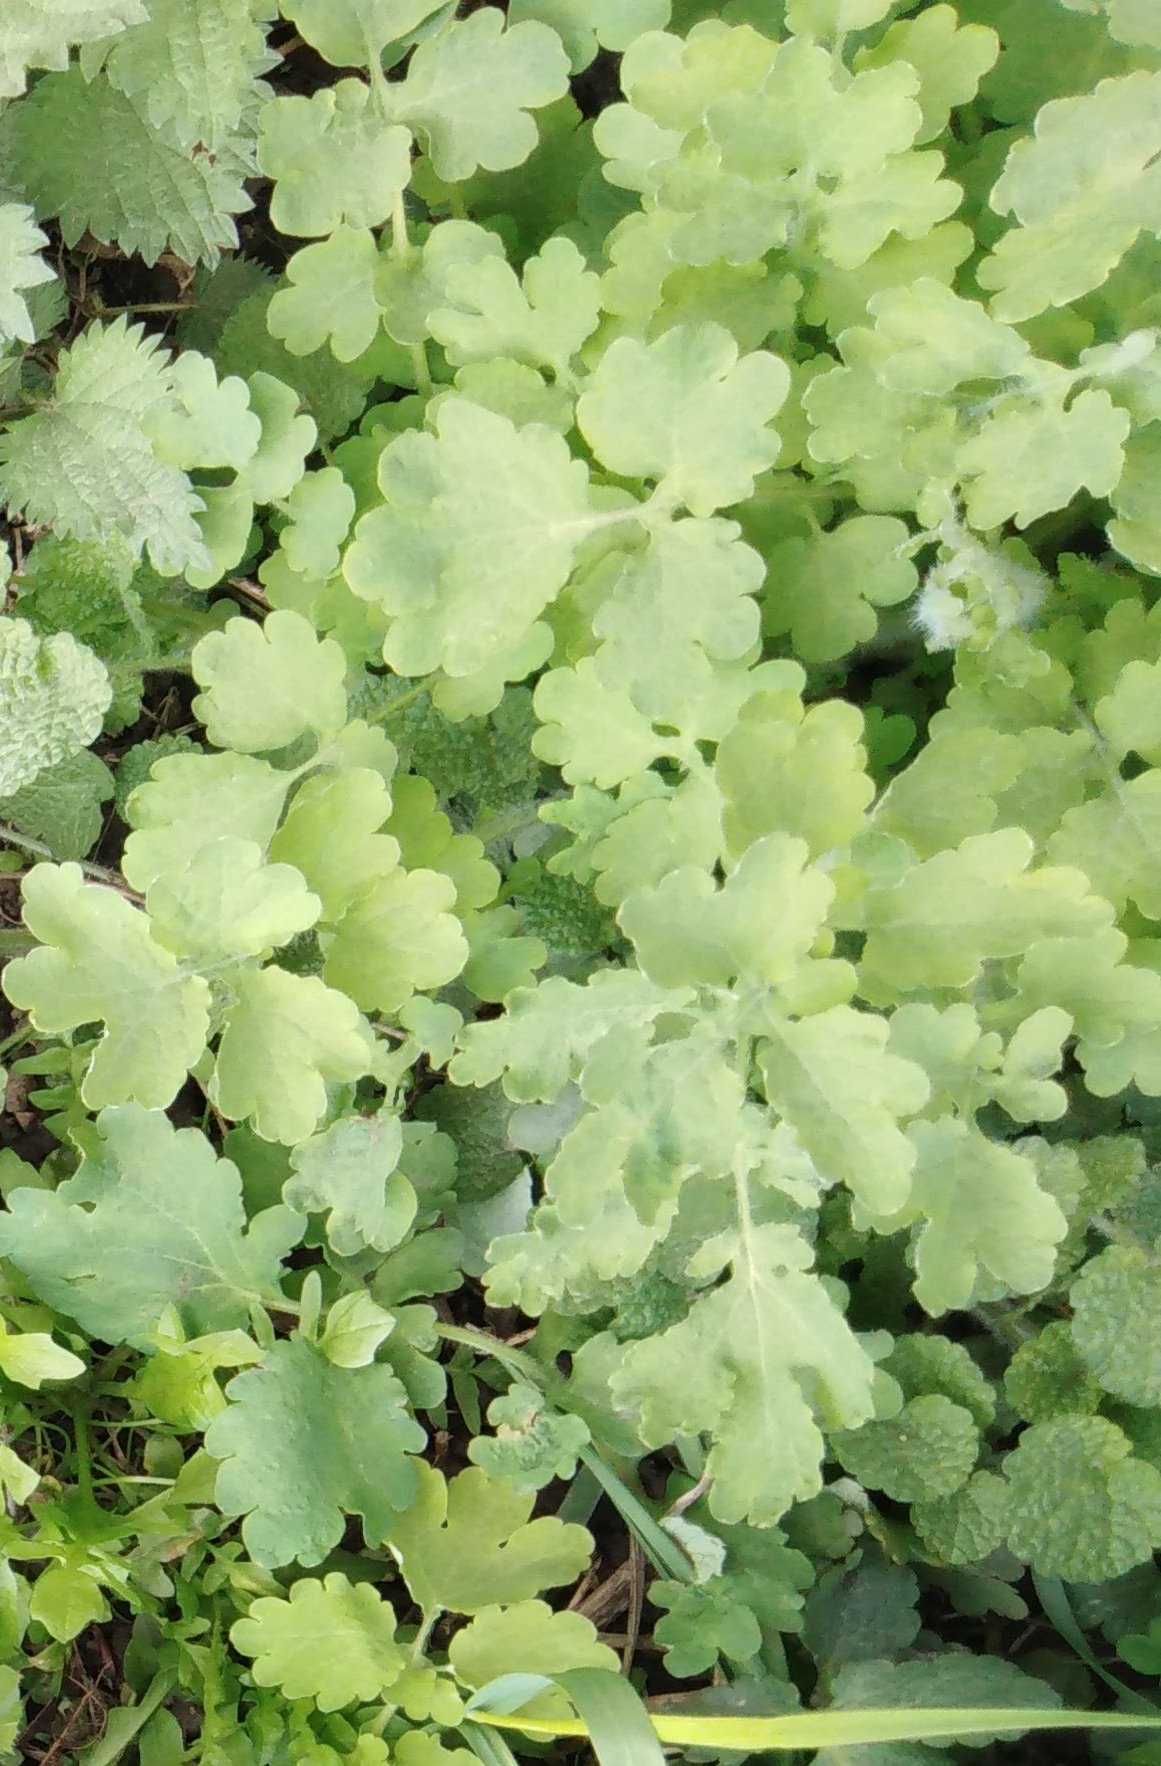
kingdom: Plantae
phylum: Tracheophyta
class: Magnoliopsida
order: Ranunculales
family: Papaveraceae
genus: Chelidonium
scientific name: Chelidonium majus
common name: Greater celandine
